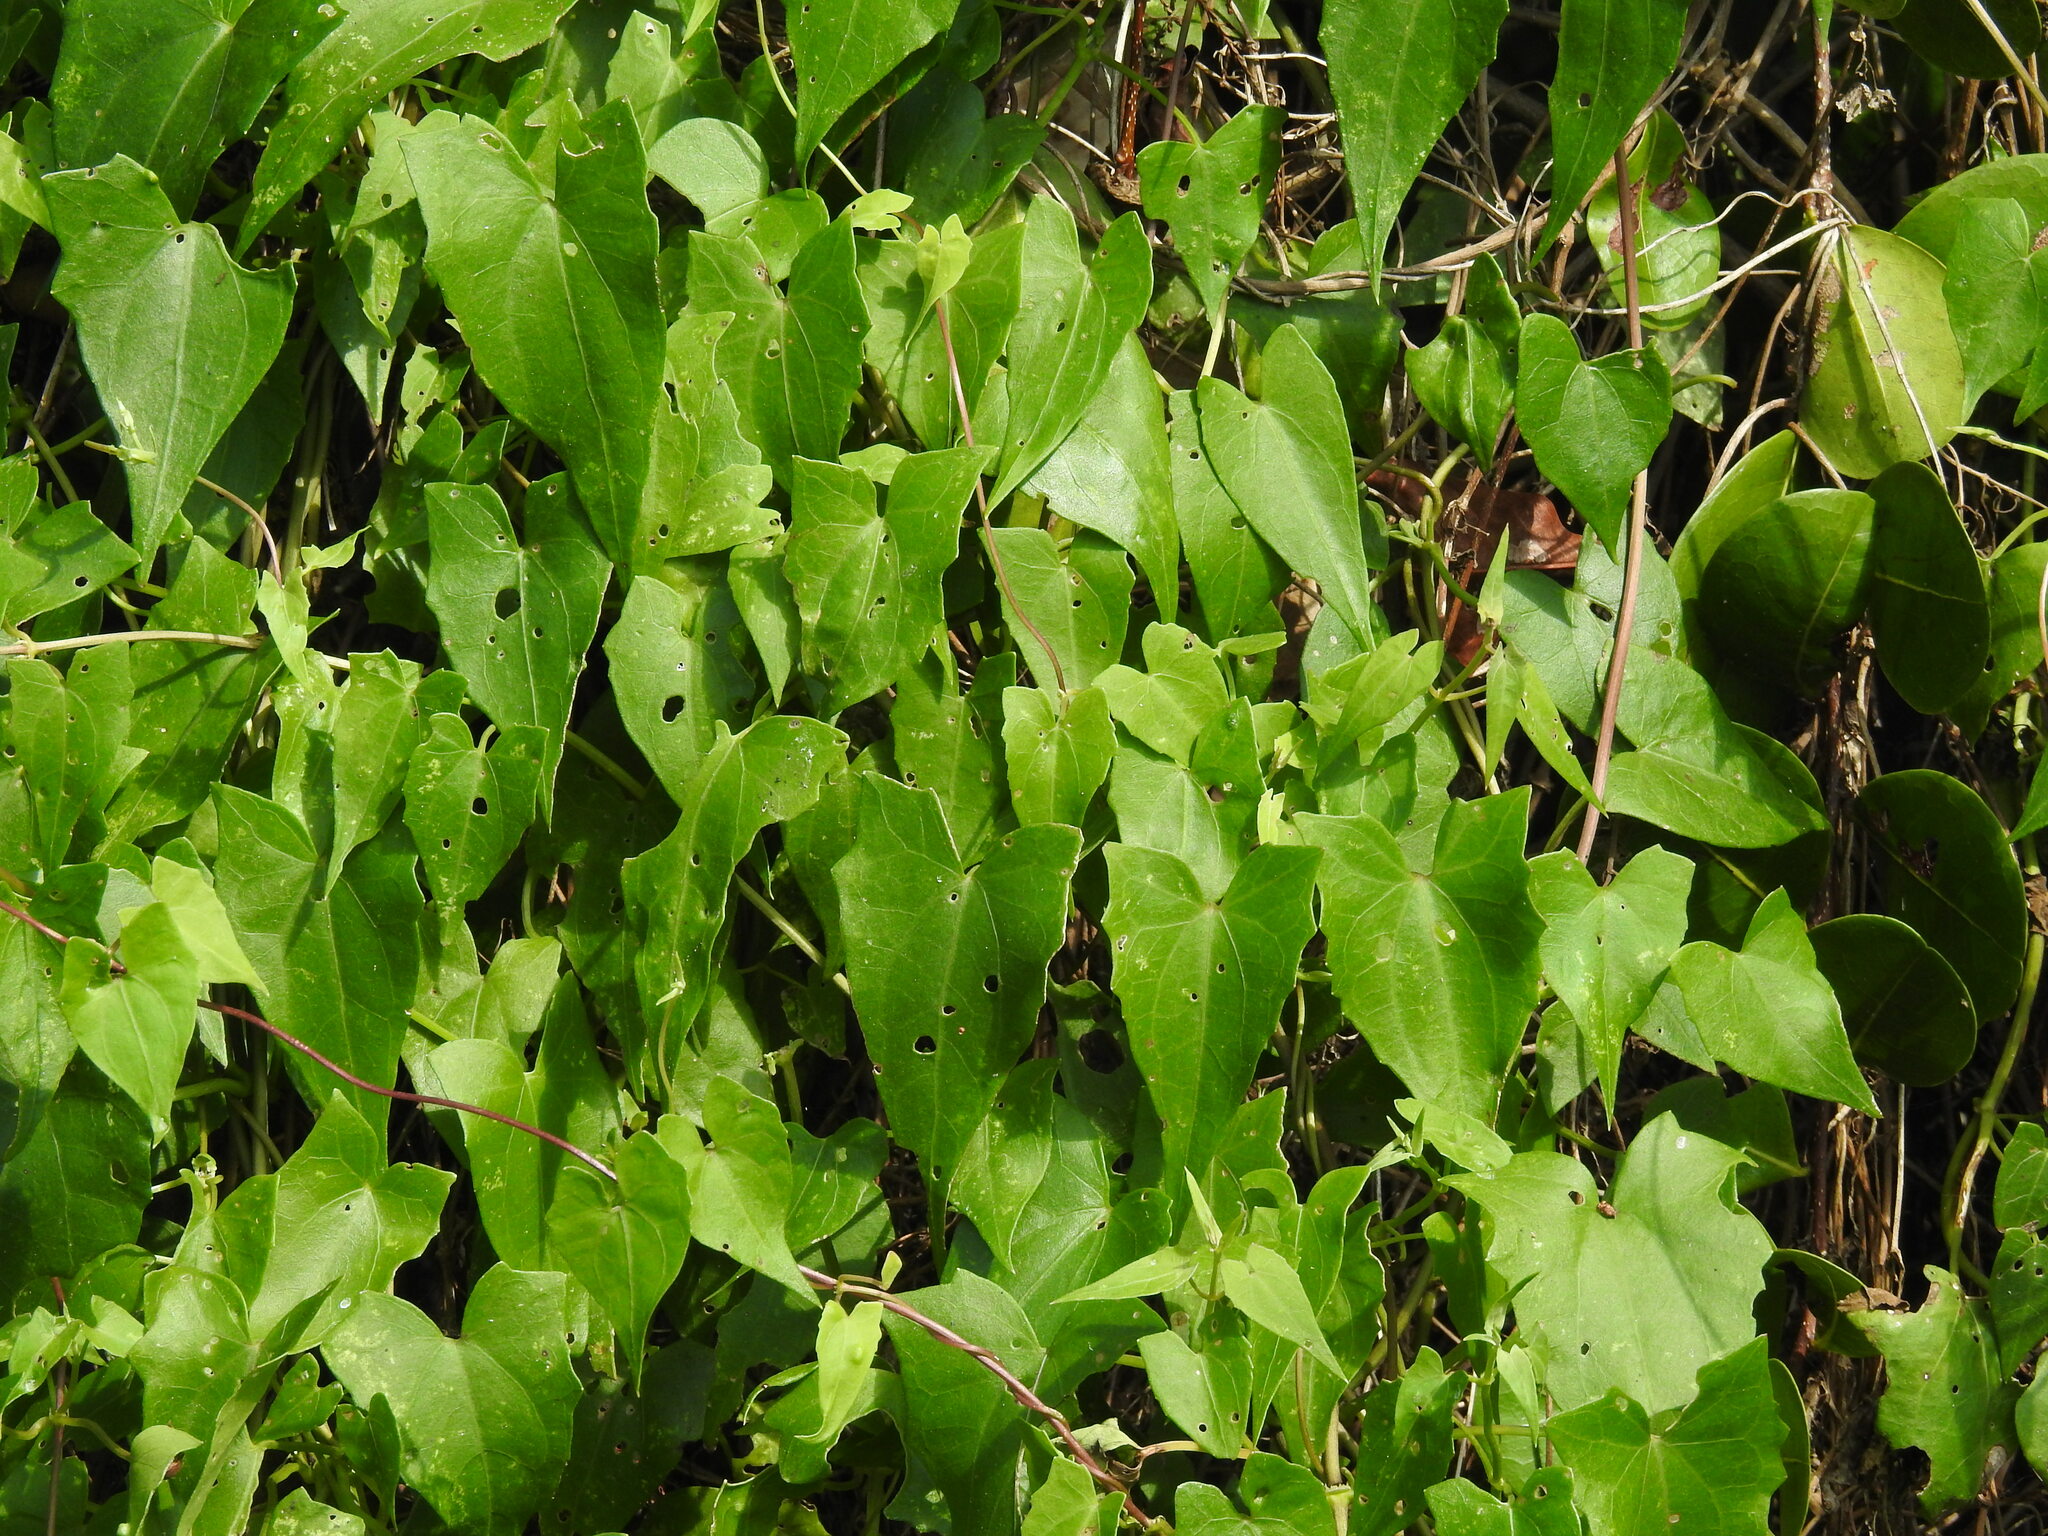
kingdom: Plantae
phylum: Tracheophyta
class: Magnoliopsida
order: Asterales
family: Asteraceae
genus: Mikania
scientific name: Mikania scandens
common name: Climbing hempvine
